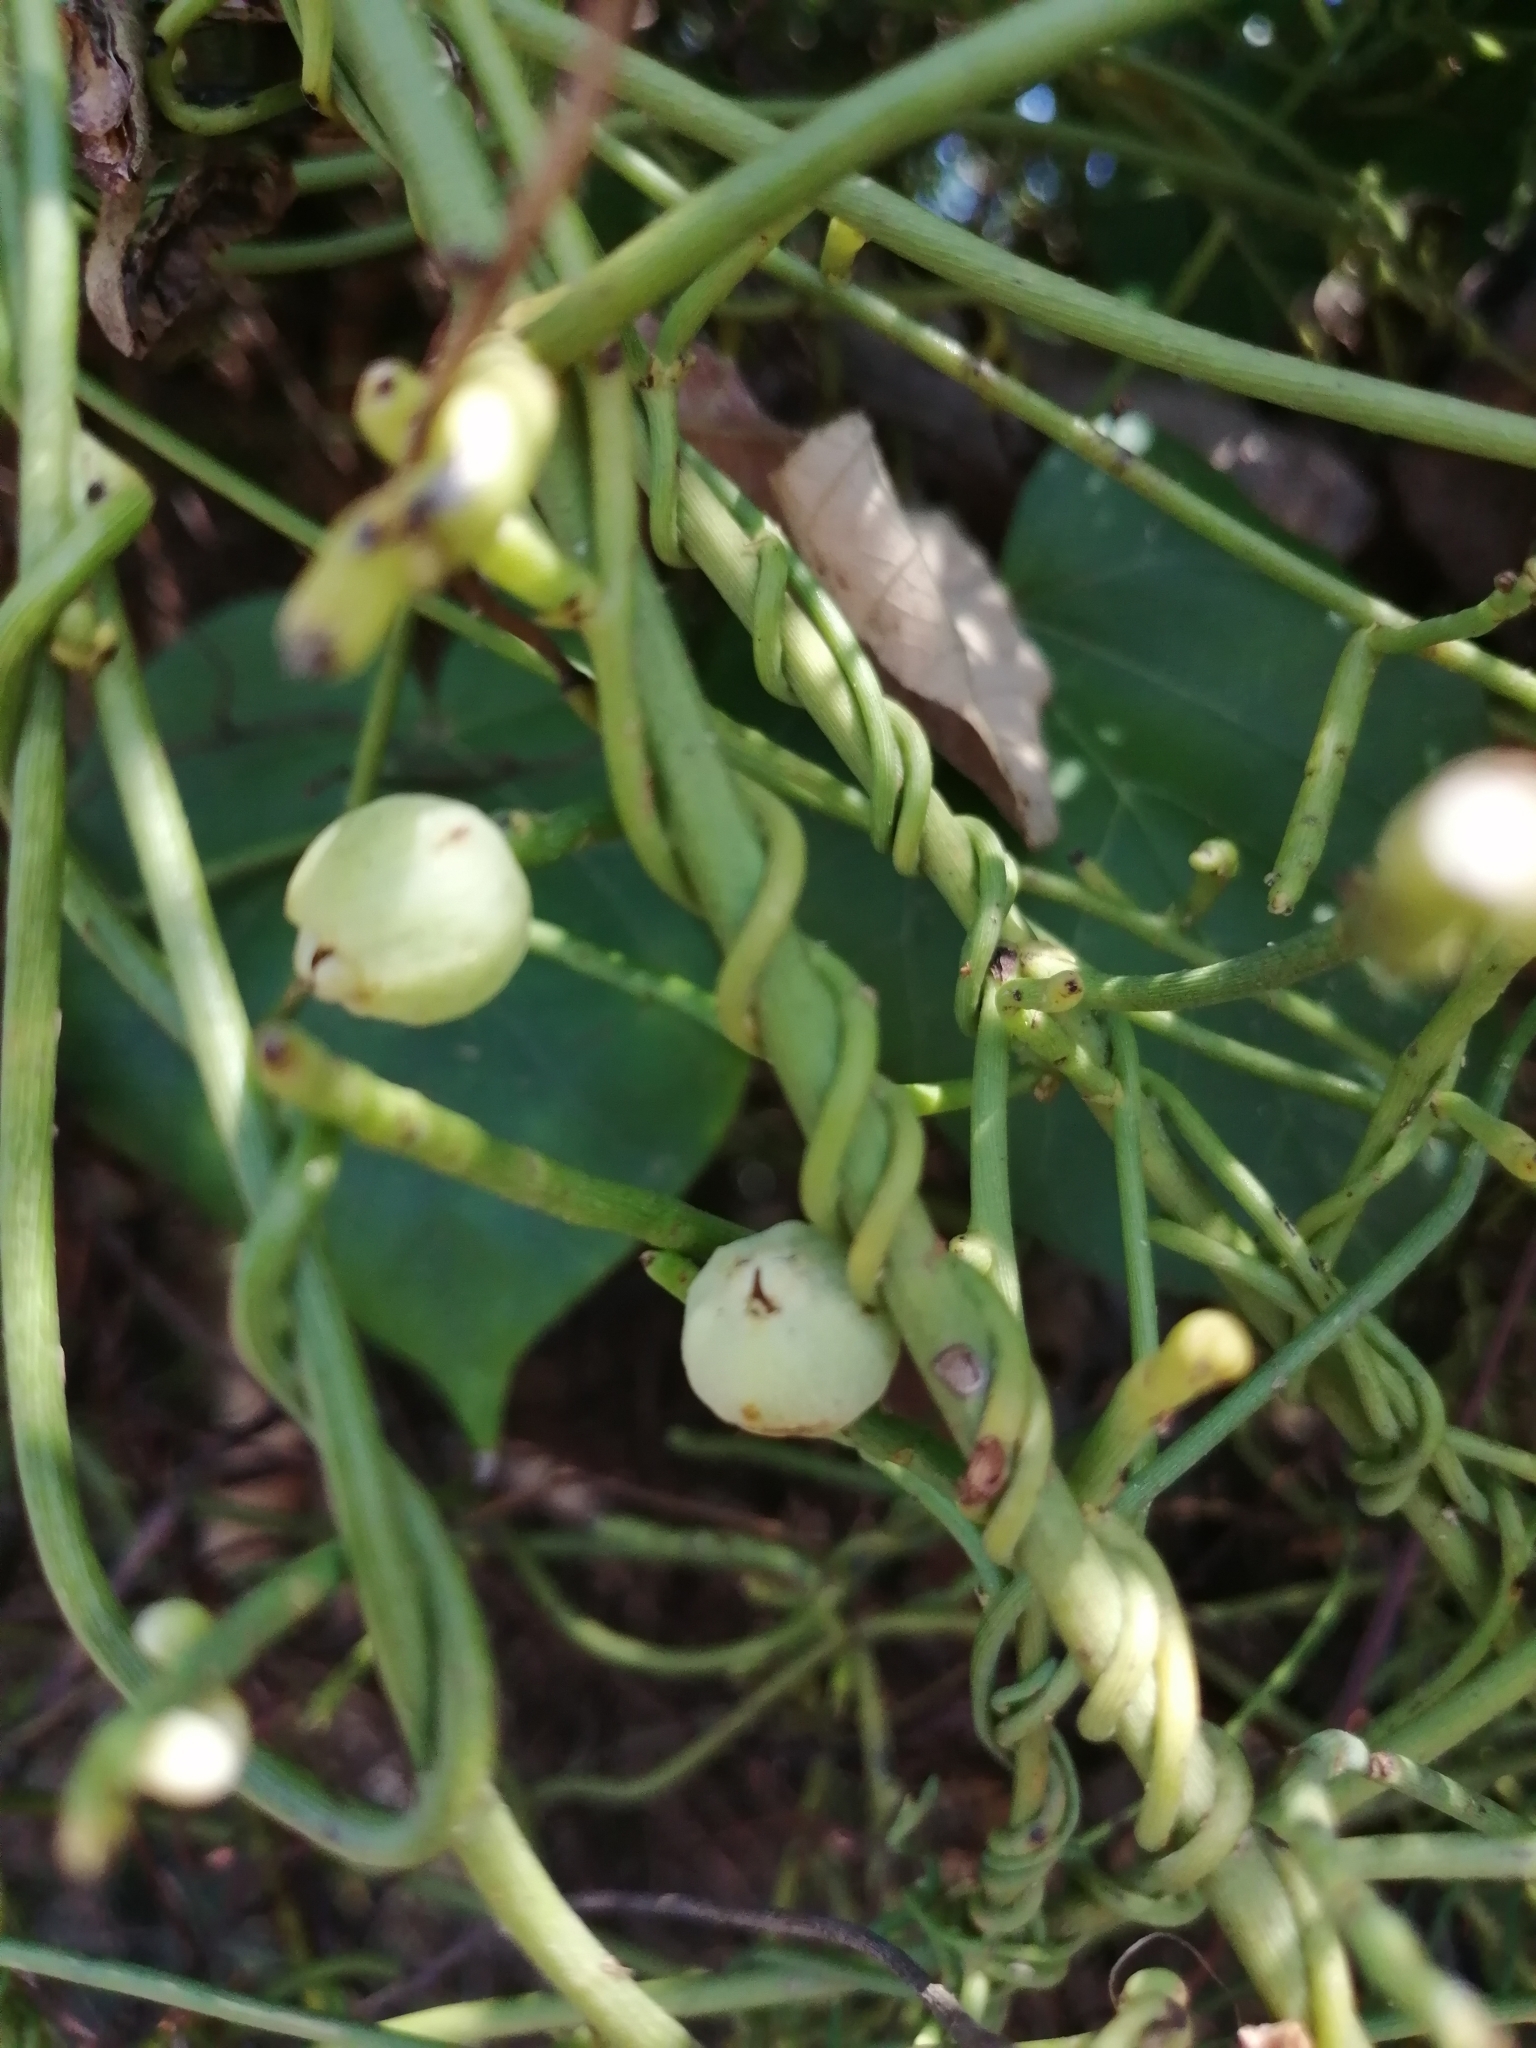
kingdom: Plantae
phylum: Tracheophyta
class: Magnoliopsida
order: Laurales
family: Lauraceae
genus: Cassytha
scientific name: Cassytha filiformis
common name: Dodder-laurel
